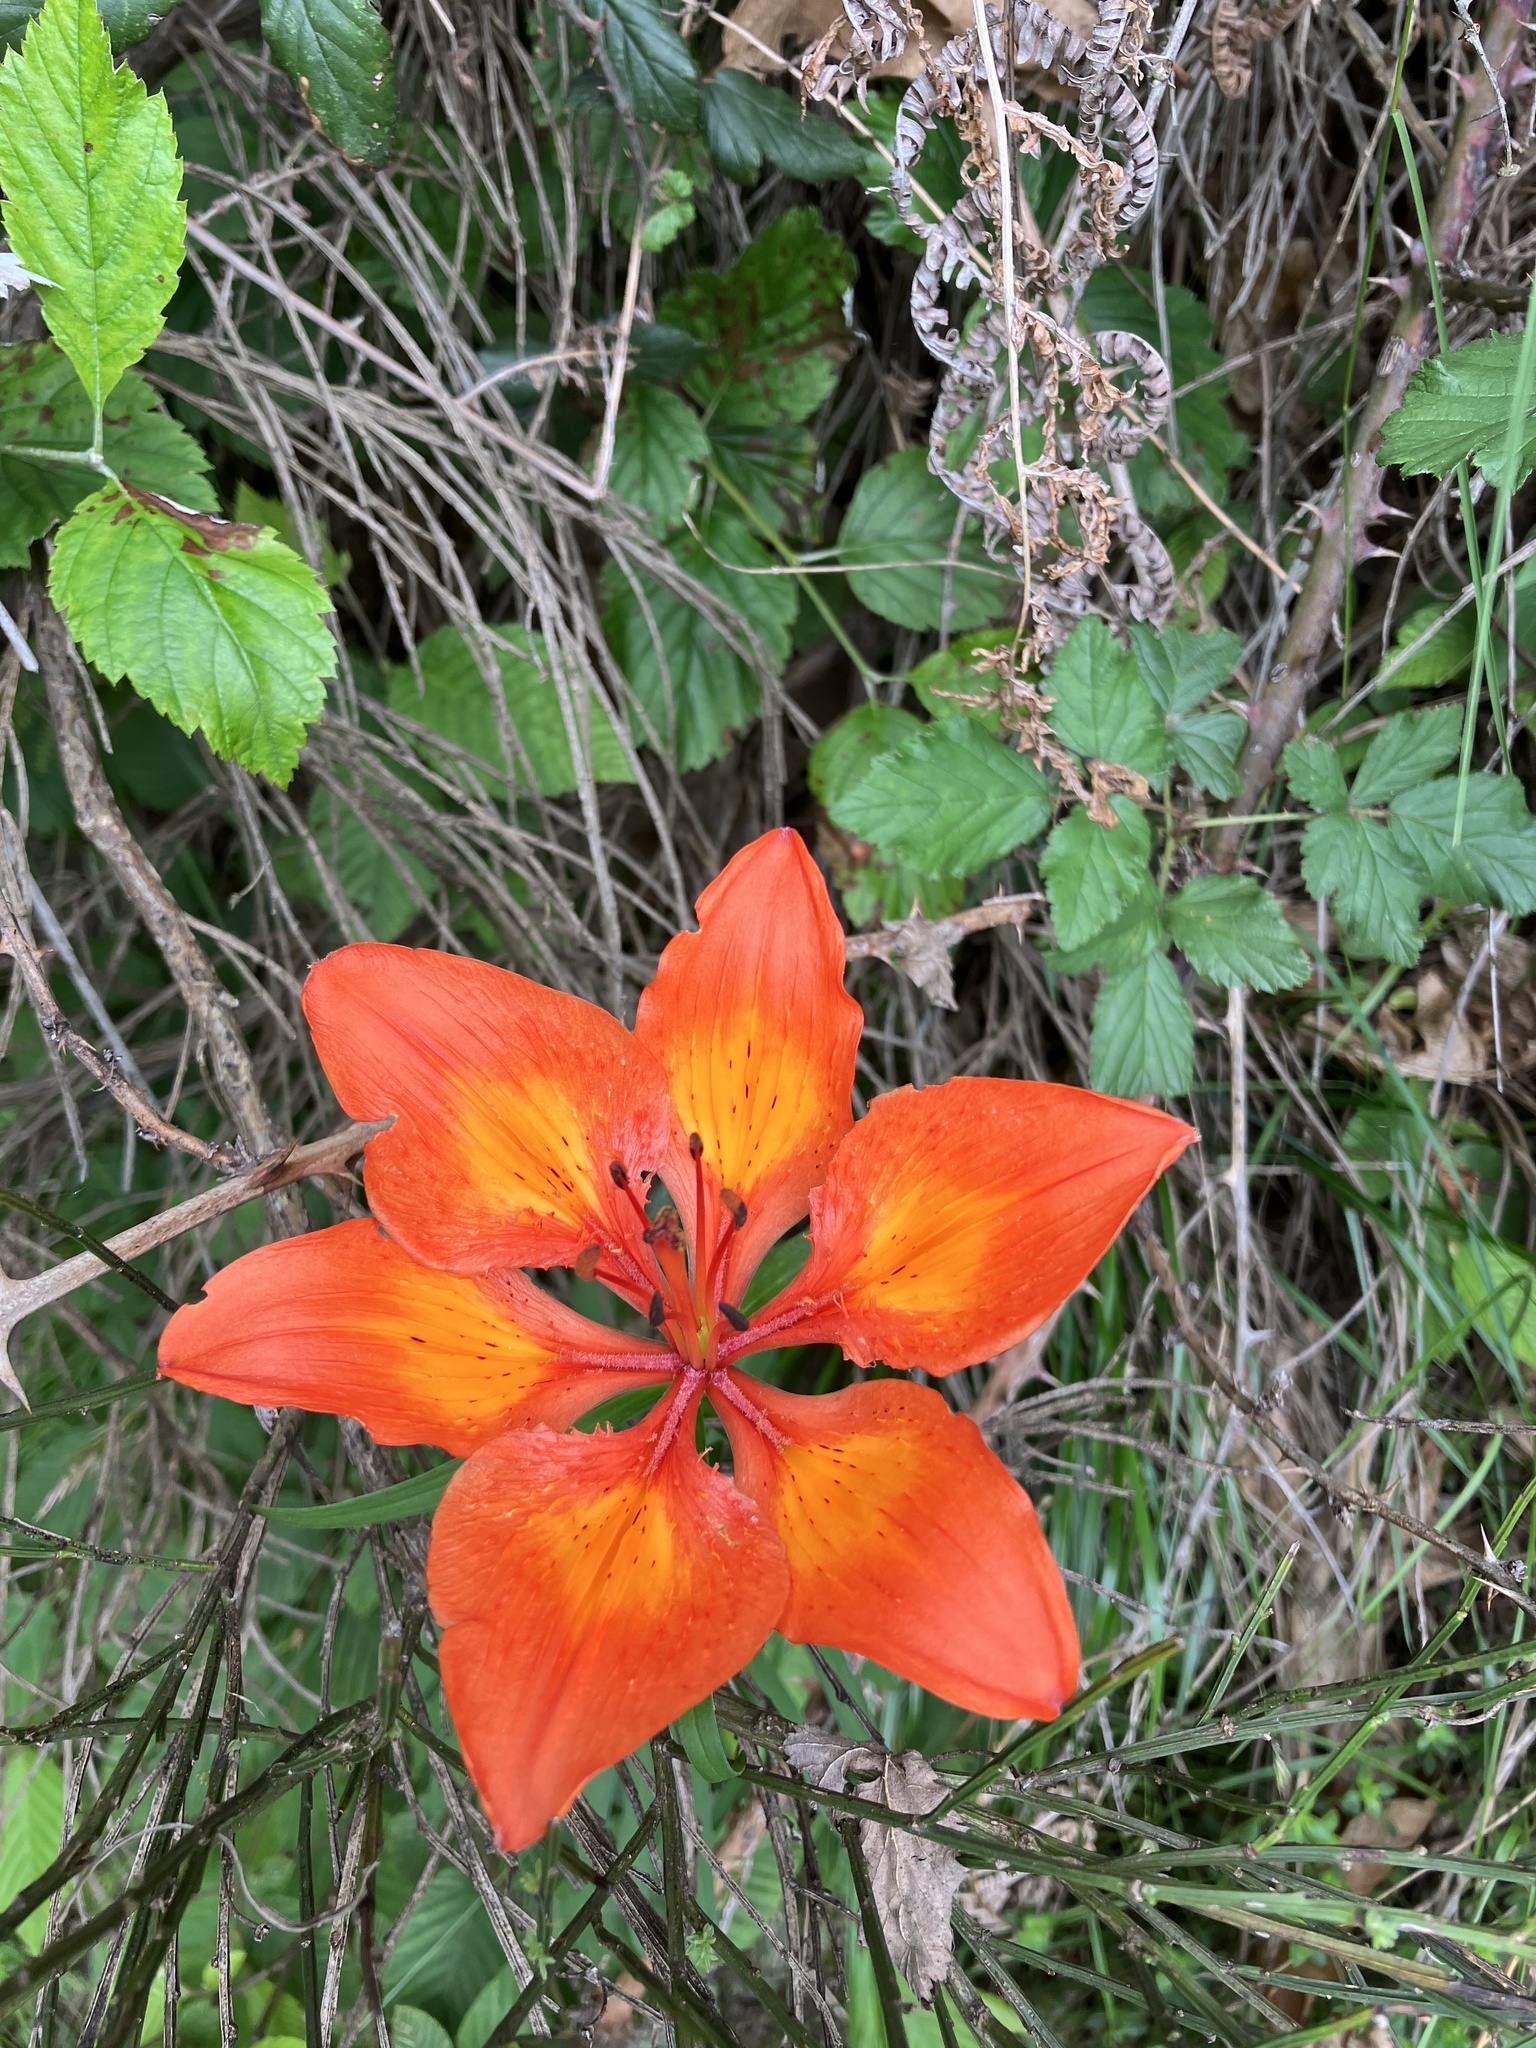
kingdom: Plantae
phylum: Tracheophyta
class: Liliopsida
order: Liliales
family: Liliaceae
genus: Lilium
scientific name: Lilium bulbiferum
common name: Orange lily
